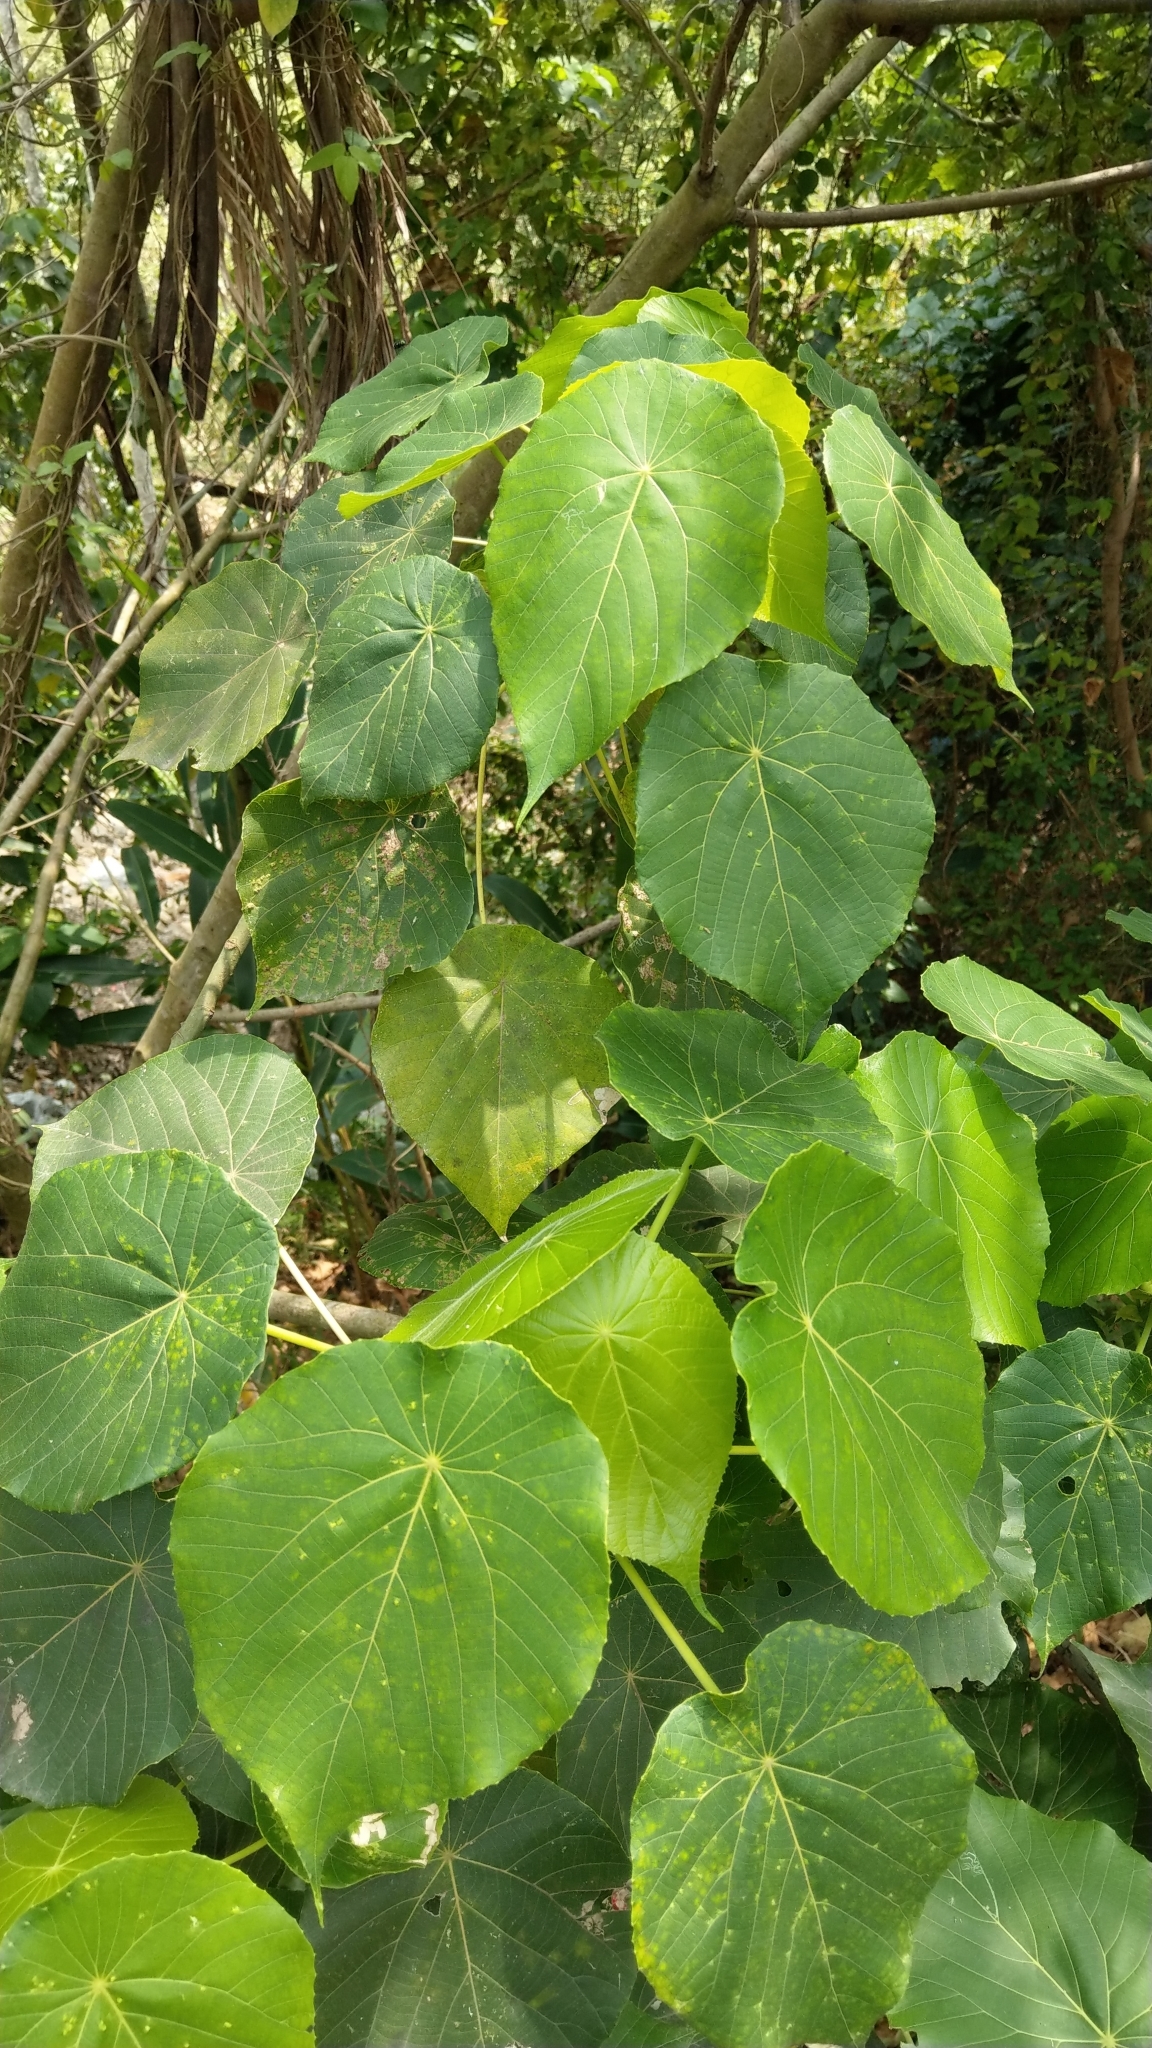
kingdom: Plantae
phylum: Tracheophyta
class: Magnoliopsida
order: Malpighiales
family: Euphorbiaceae
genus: Macaranga
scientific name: Macaranga tanarius
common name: Parasol leaf tree
